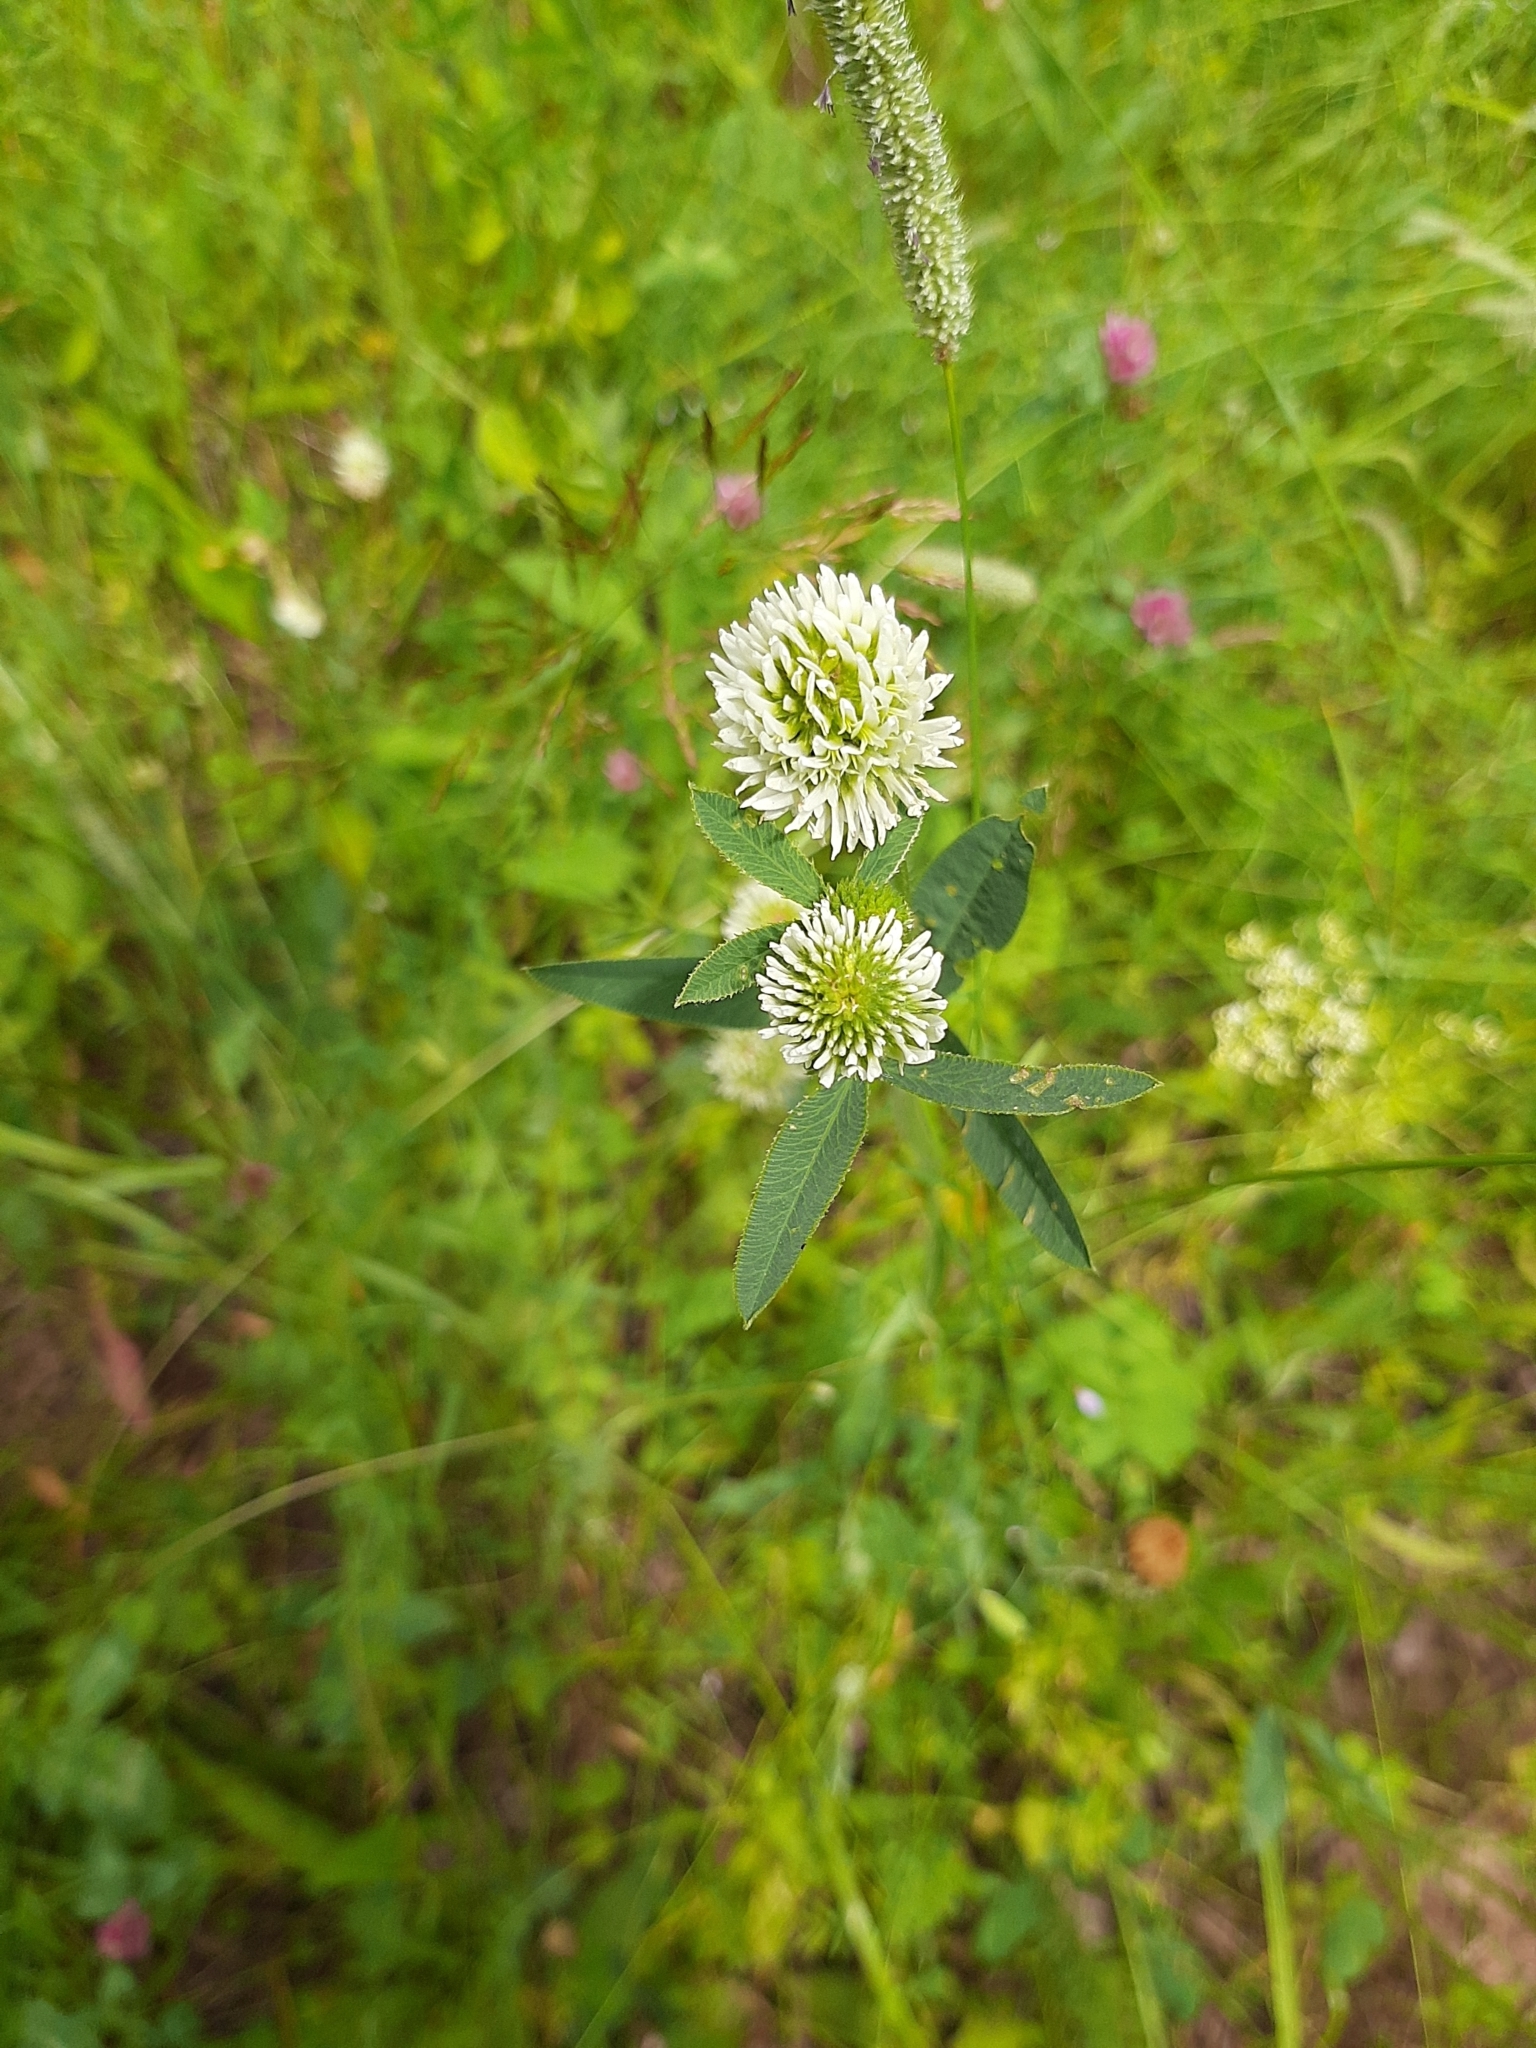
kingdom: Plantae
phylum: Tracheophyta
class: Magnoliopsida
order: Fabales
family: Fabaceae
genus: Trifolium
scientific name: Trifolium montanum
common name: Mountain clover
